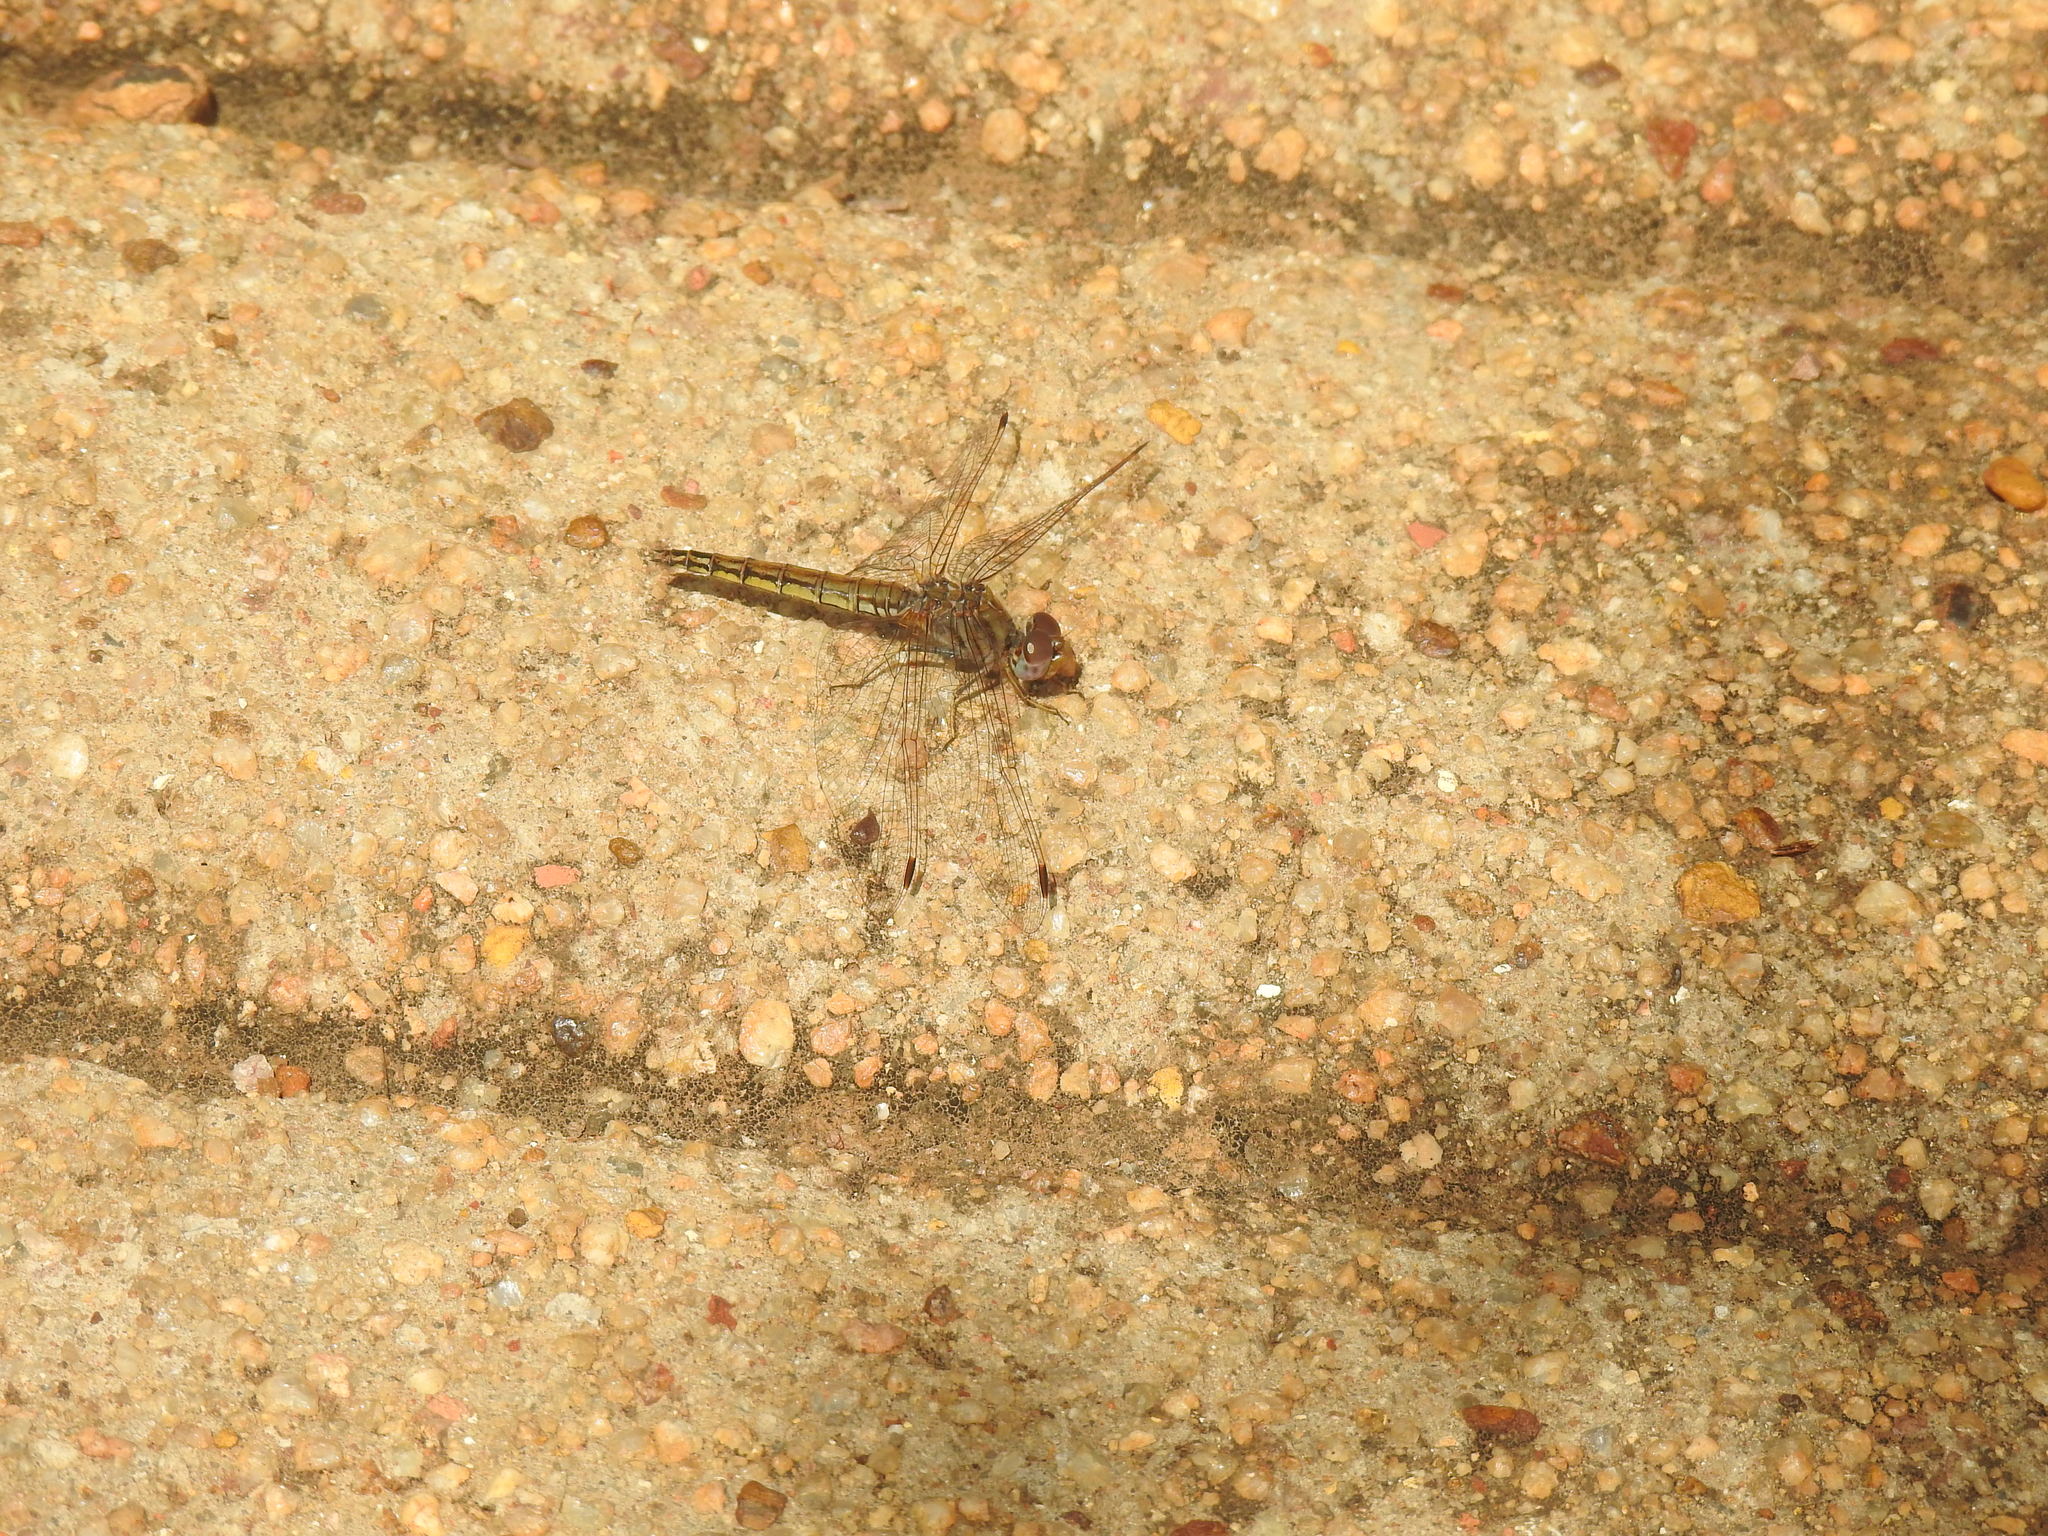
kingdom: Animalia
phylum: Arthropoda
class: Insecta
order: Odonata
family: Libellulidae
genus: Trithemis
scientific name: Trithemis kirbyi
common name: Kirby's dropwing
